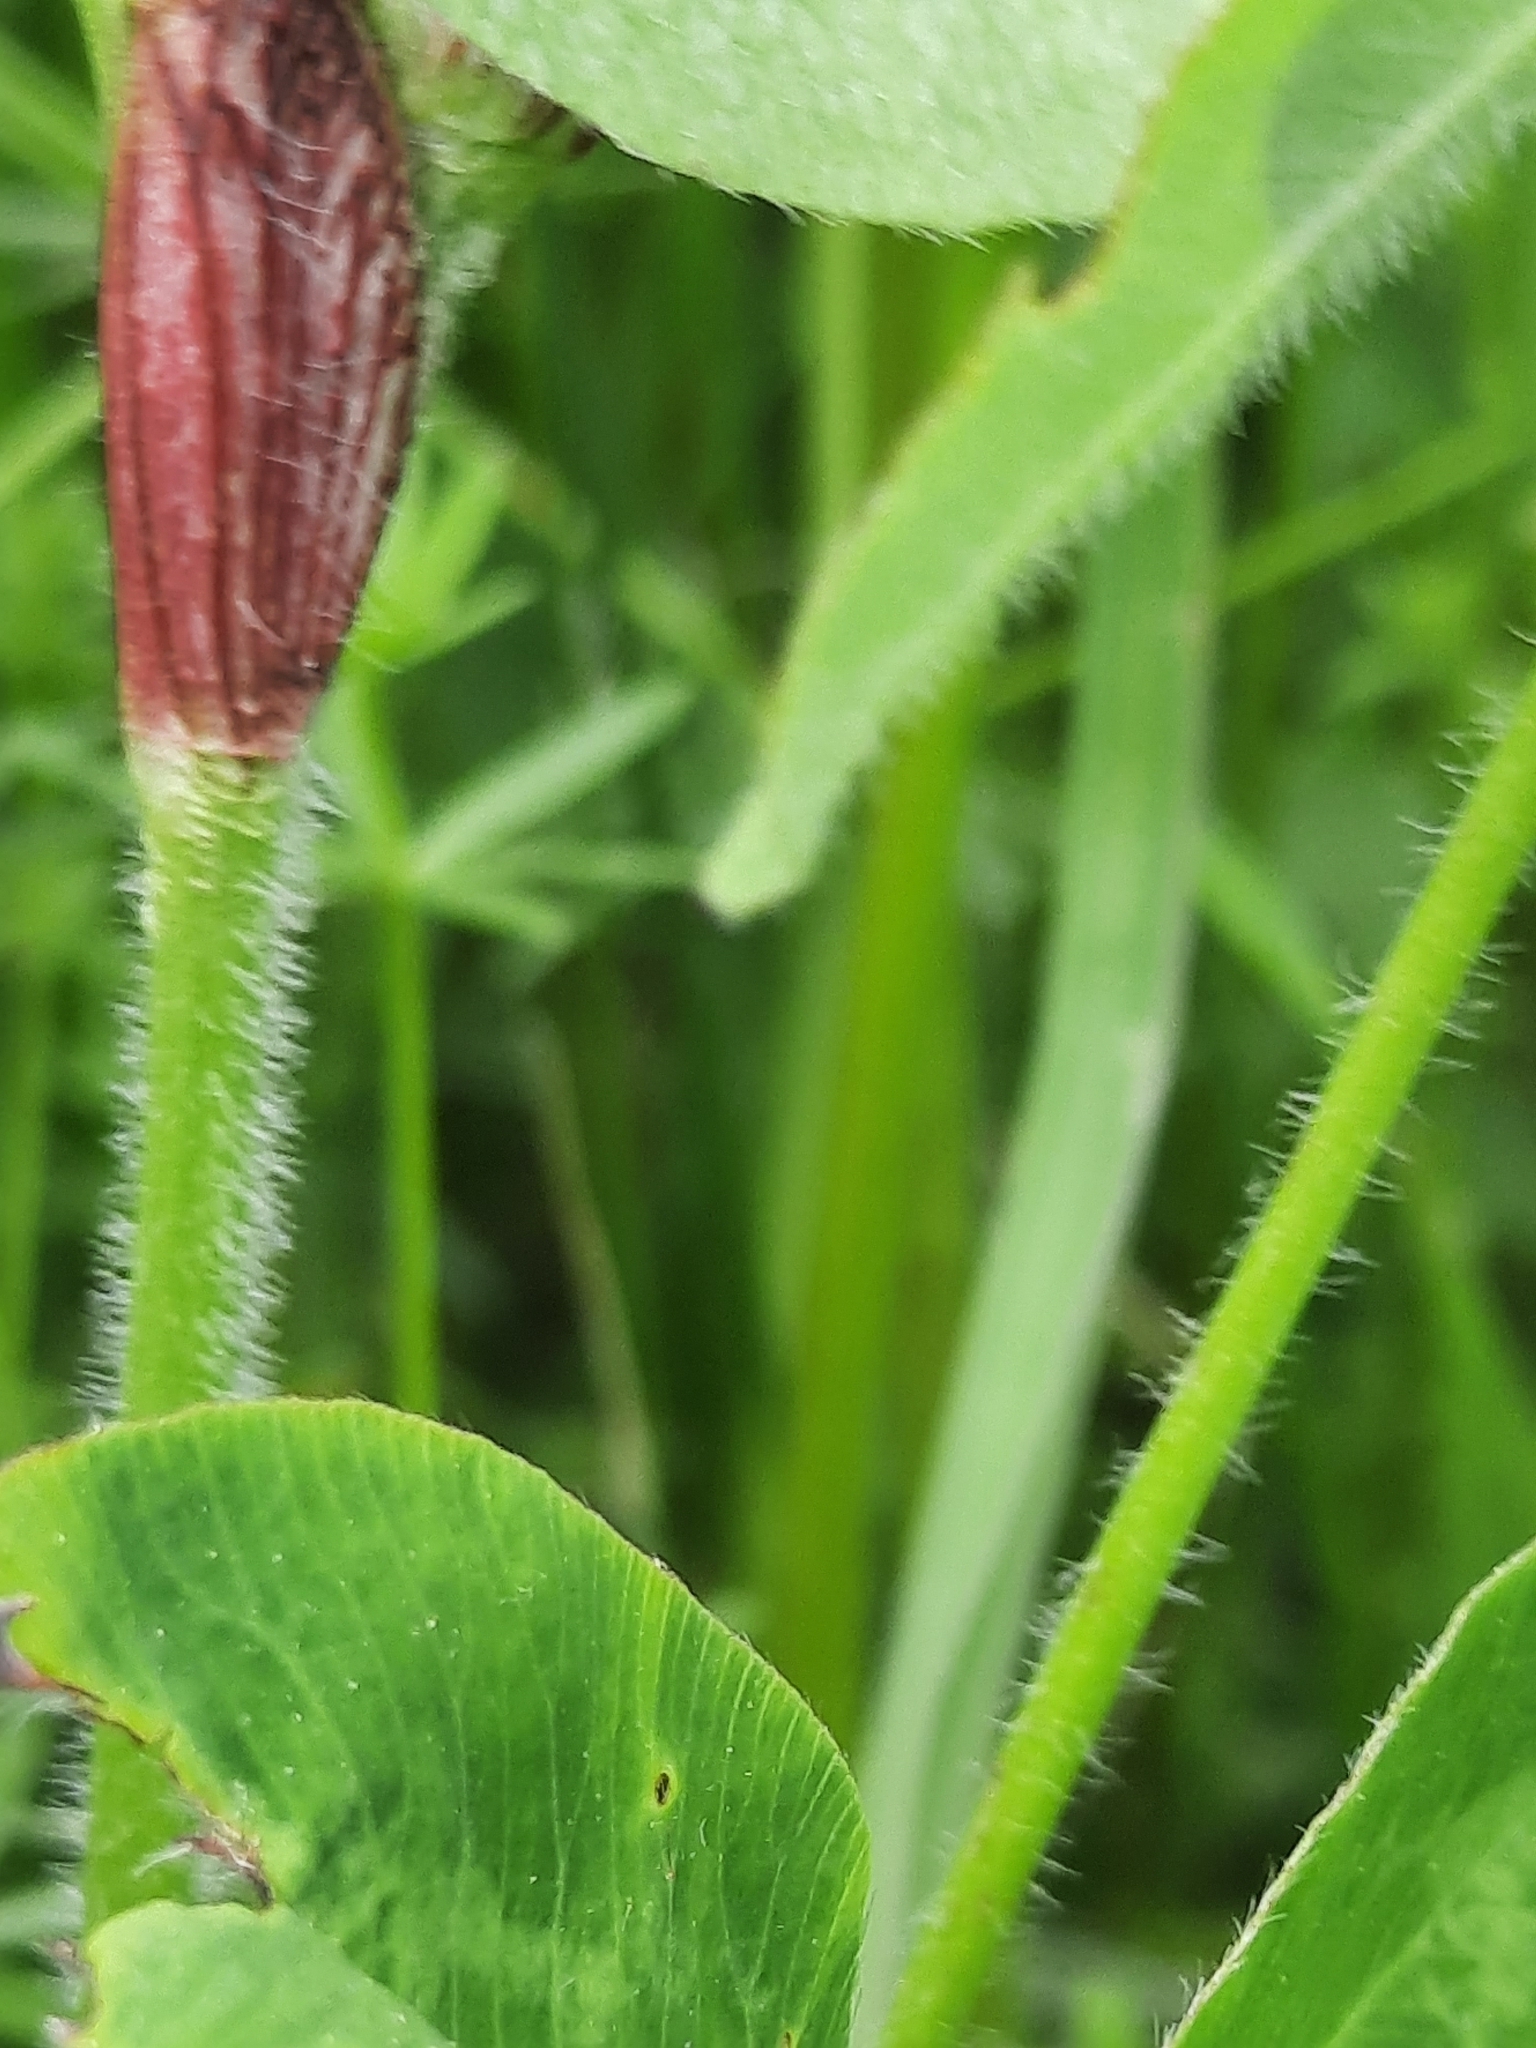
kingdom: Plantae
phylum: Tracheophyta
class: Magnoliopsida
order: Fabales
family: Fabaceae
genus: Trifolium
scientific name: Trifolium pratense
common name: Red clover
